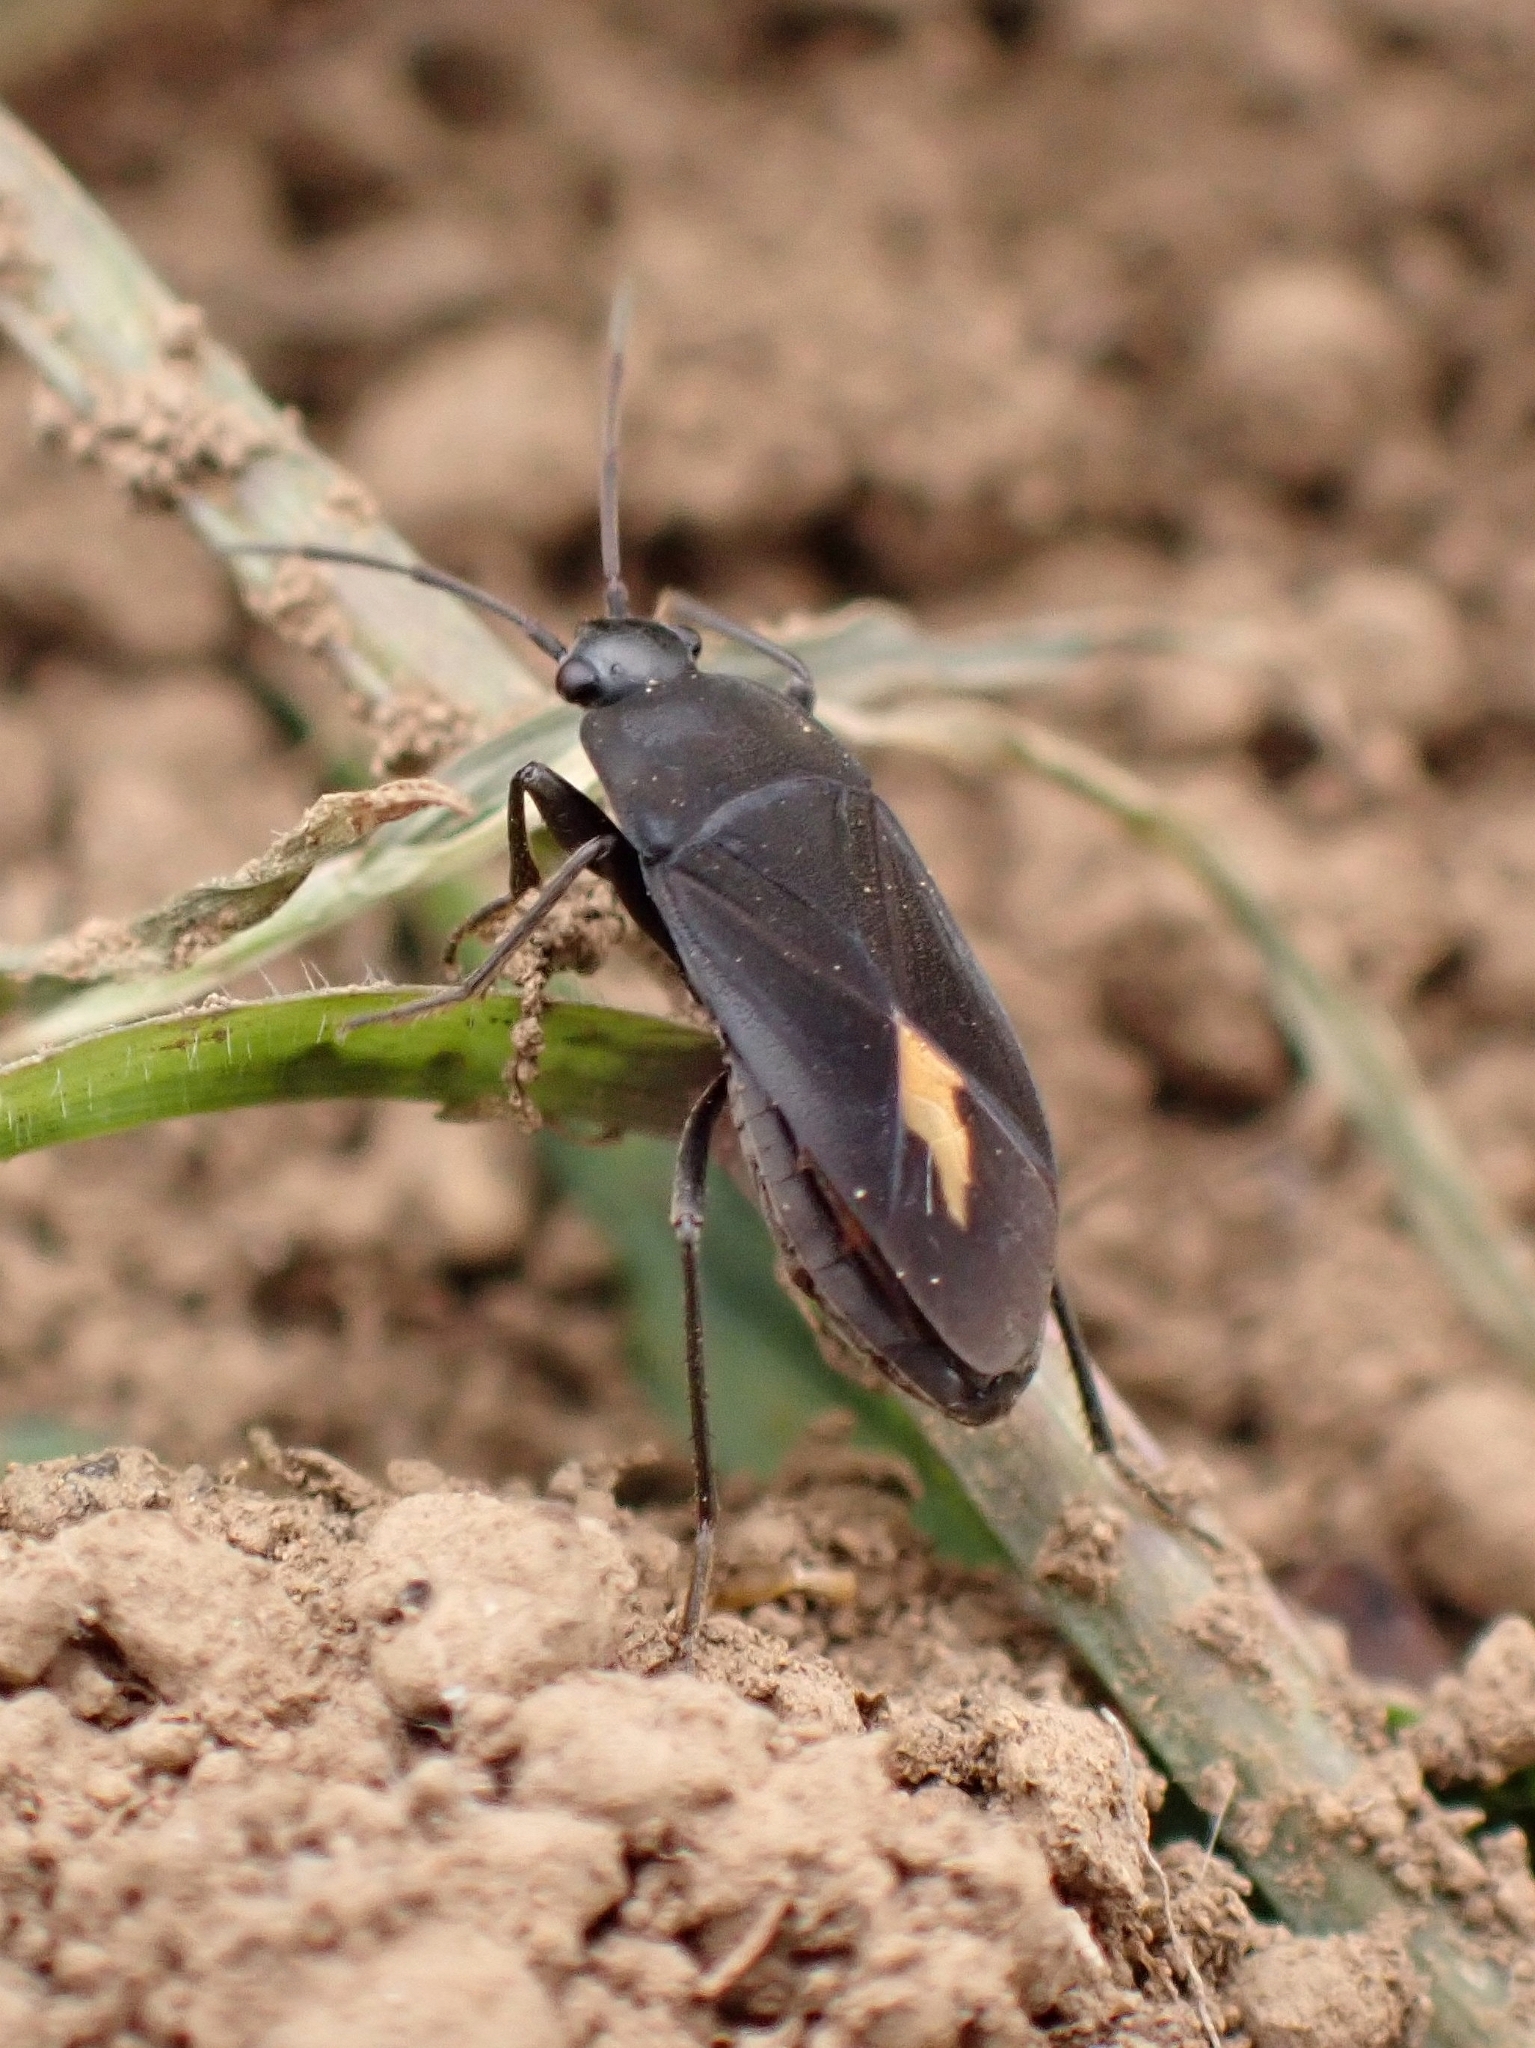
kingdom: Animalia
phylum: Arthropoda
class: Insecta
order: Hemiptera
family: Rhyparochromidae
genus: Aphanus
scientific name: Aphanus rolandri
